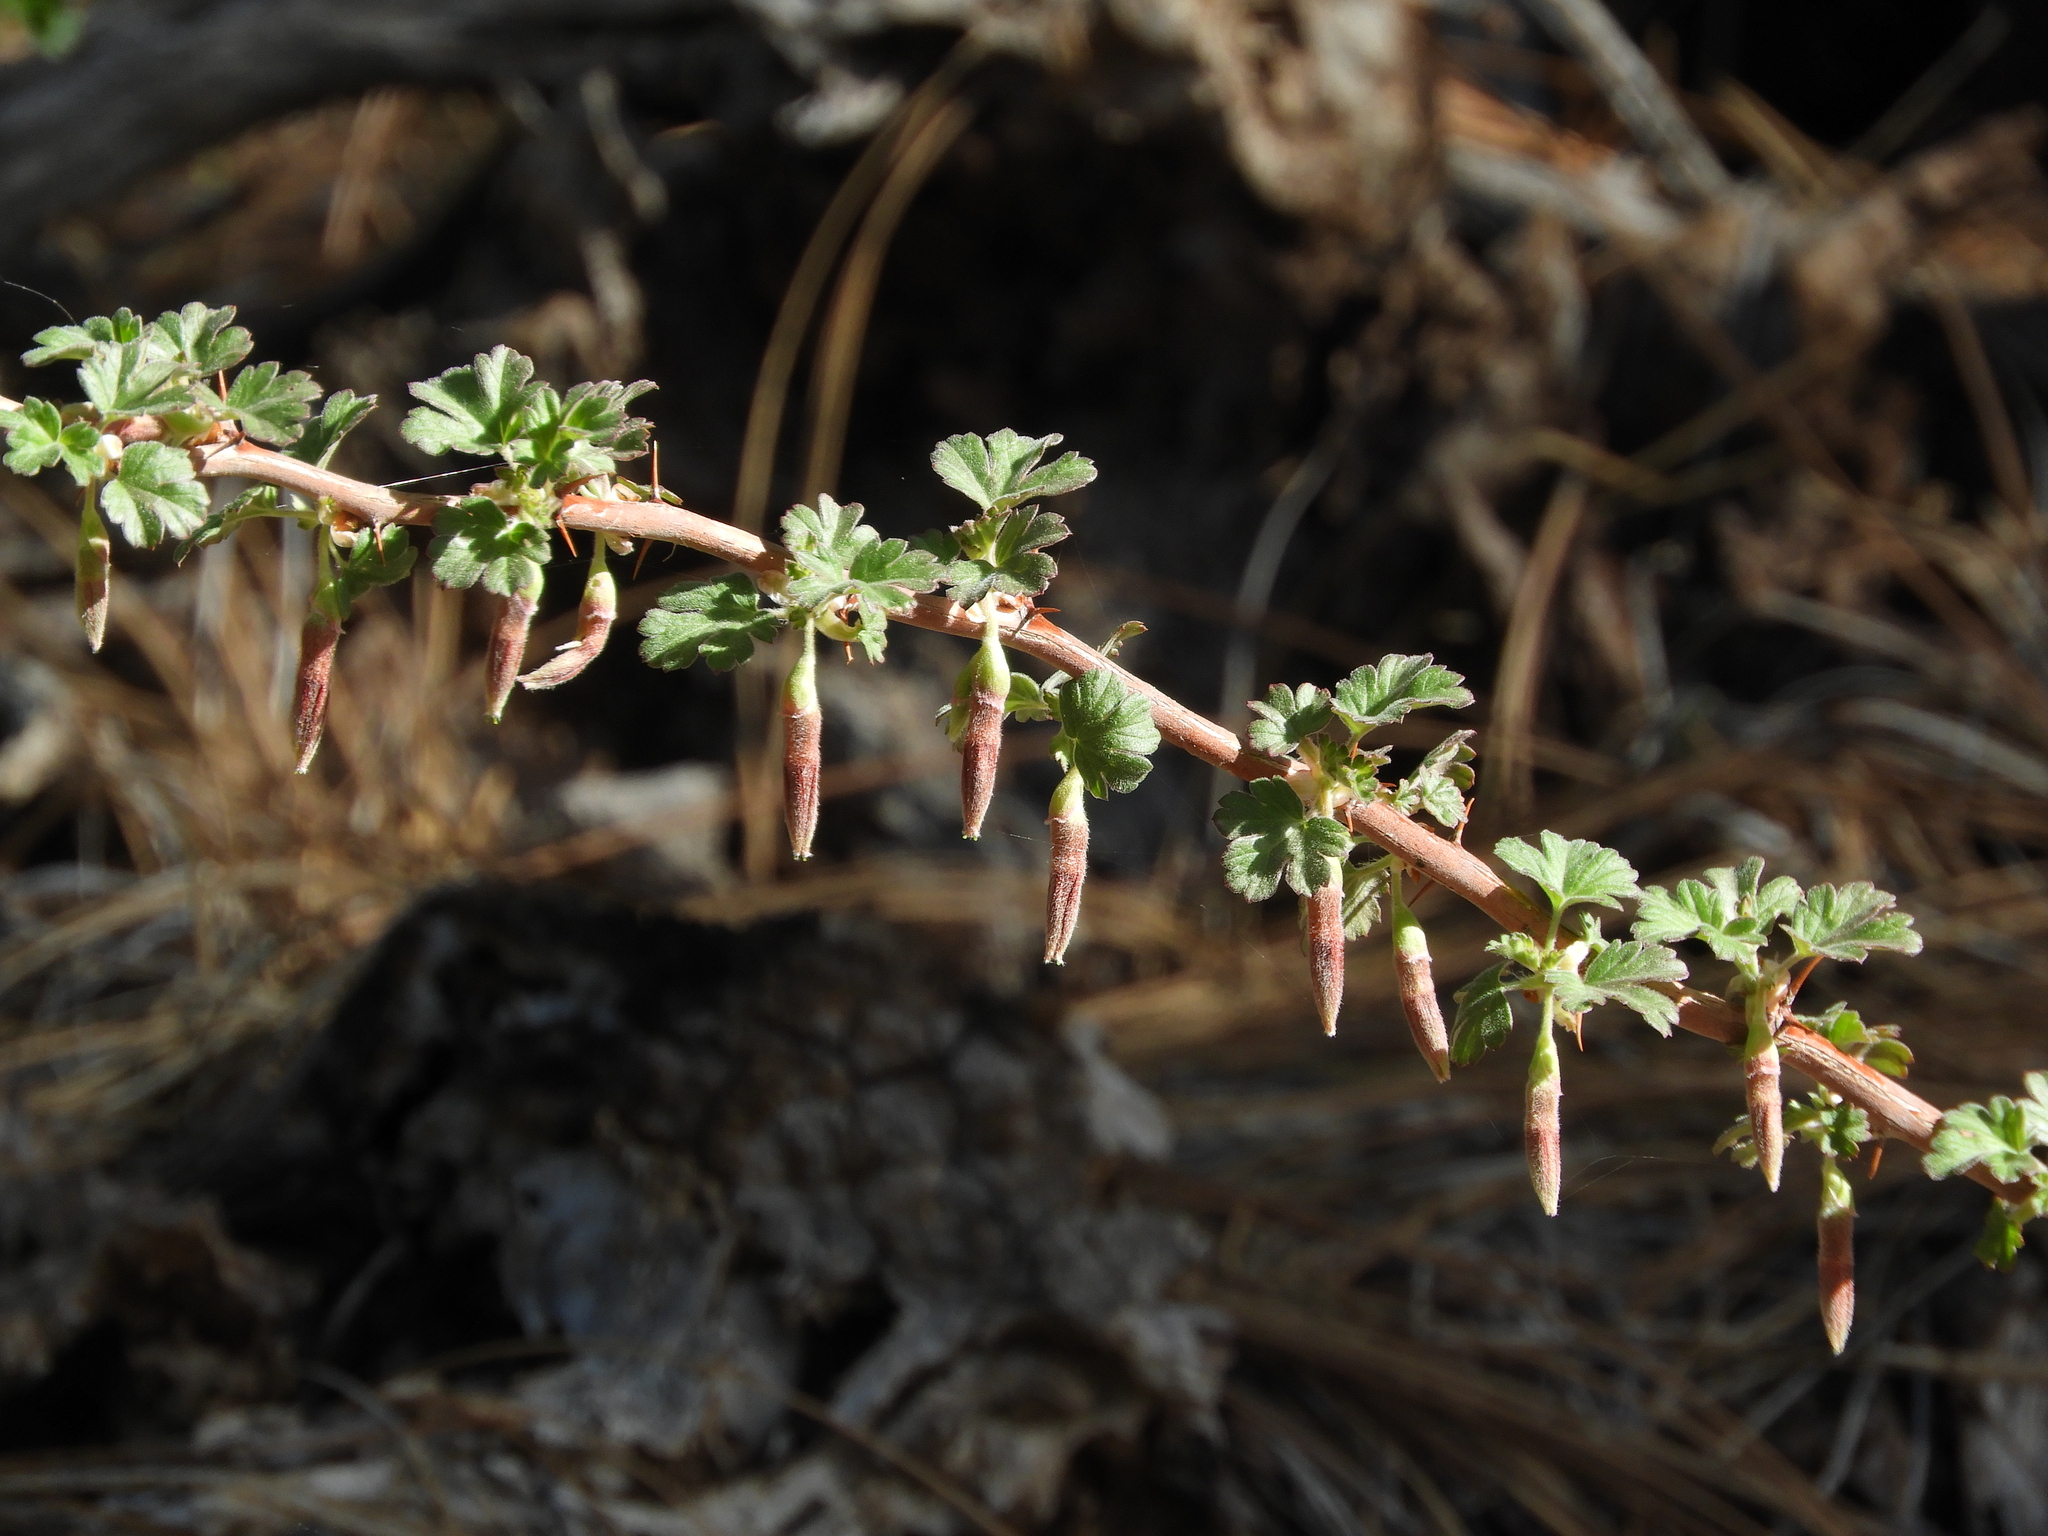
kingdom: Plantae
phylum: Tracheophyta
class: Magnoliopsida
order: Saxifragales
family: Grossulariaceae
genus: Ribes
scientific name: Ribes roezlii
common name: Sierra gooseberry
